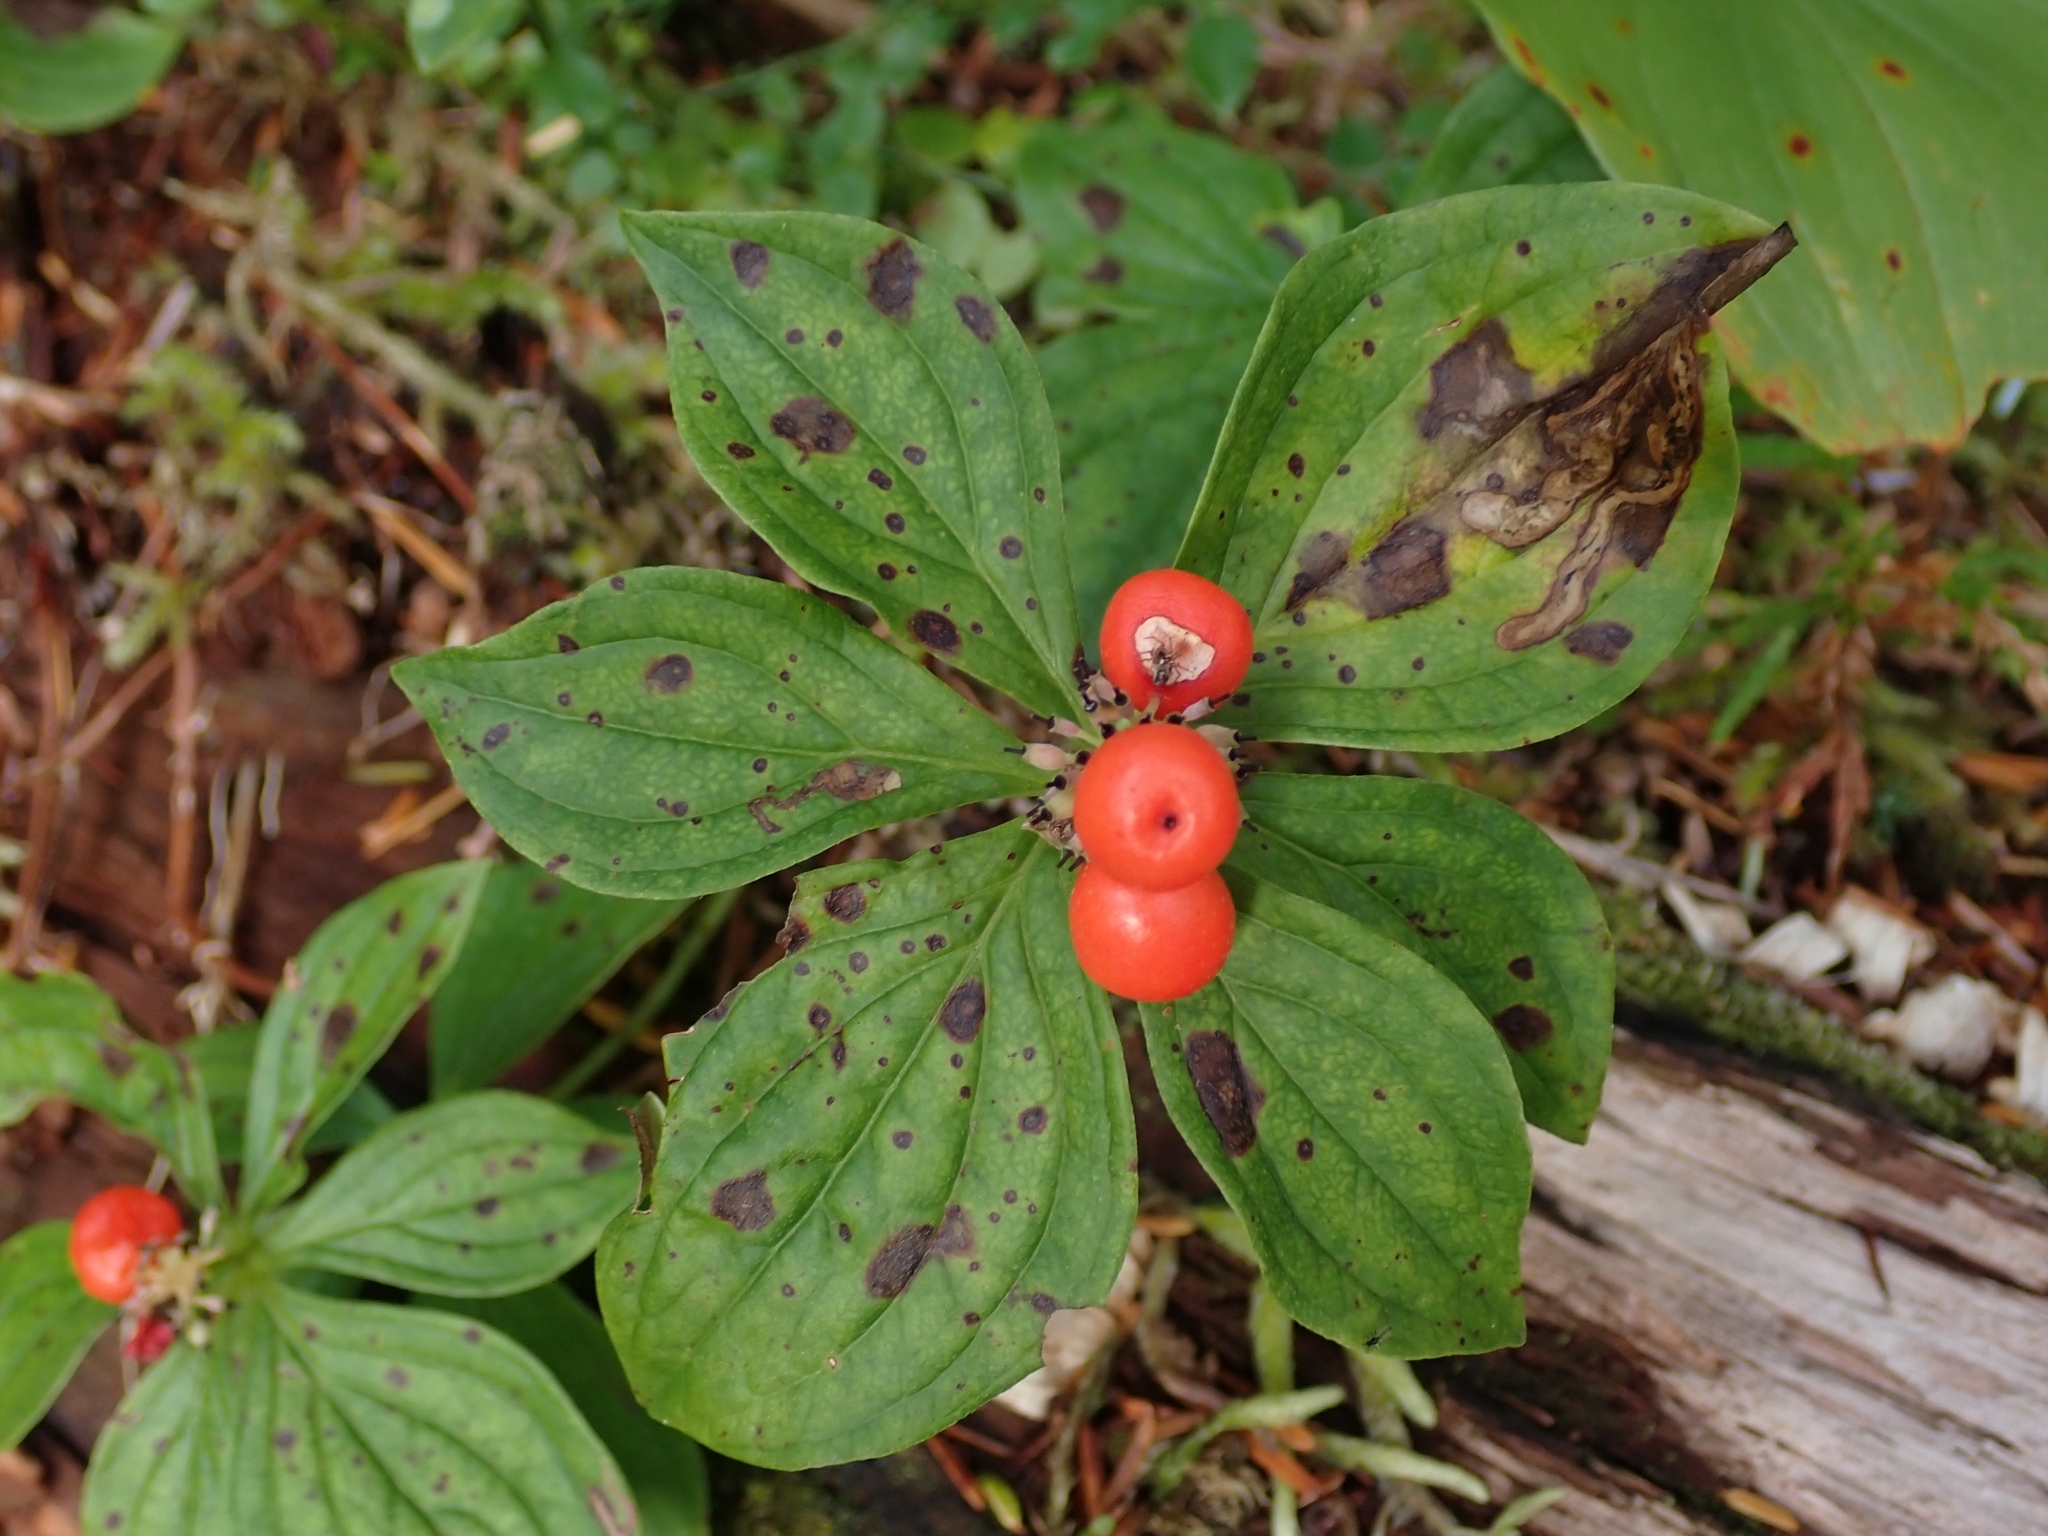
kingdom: Plantae
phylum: Tracheophyta
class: Magnoliopsida
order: Cornales
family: Cornaceae
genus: Cornus
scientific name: Cornus unalaschkensis
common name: Alaska bunchberry
